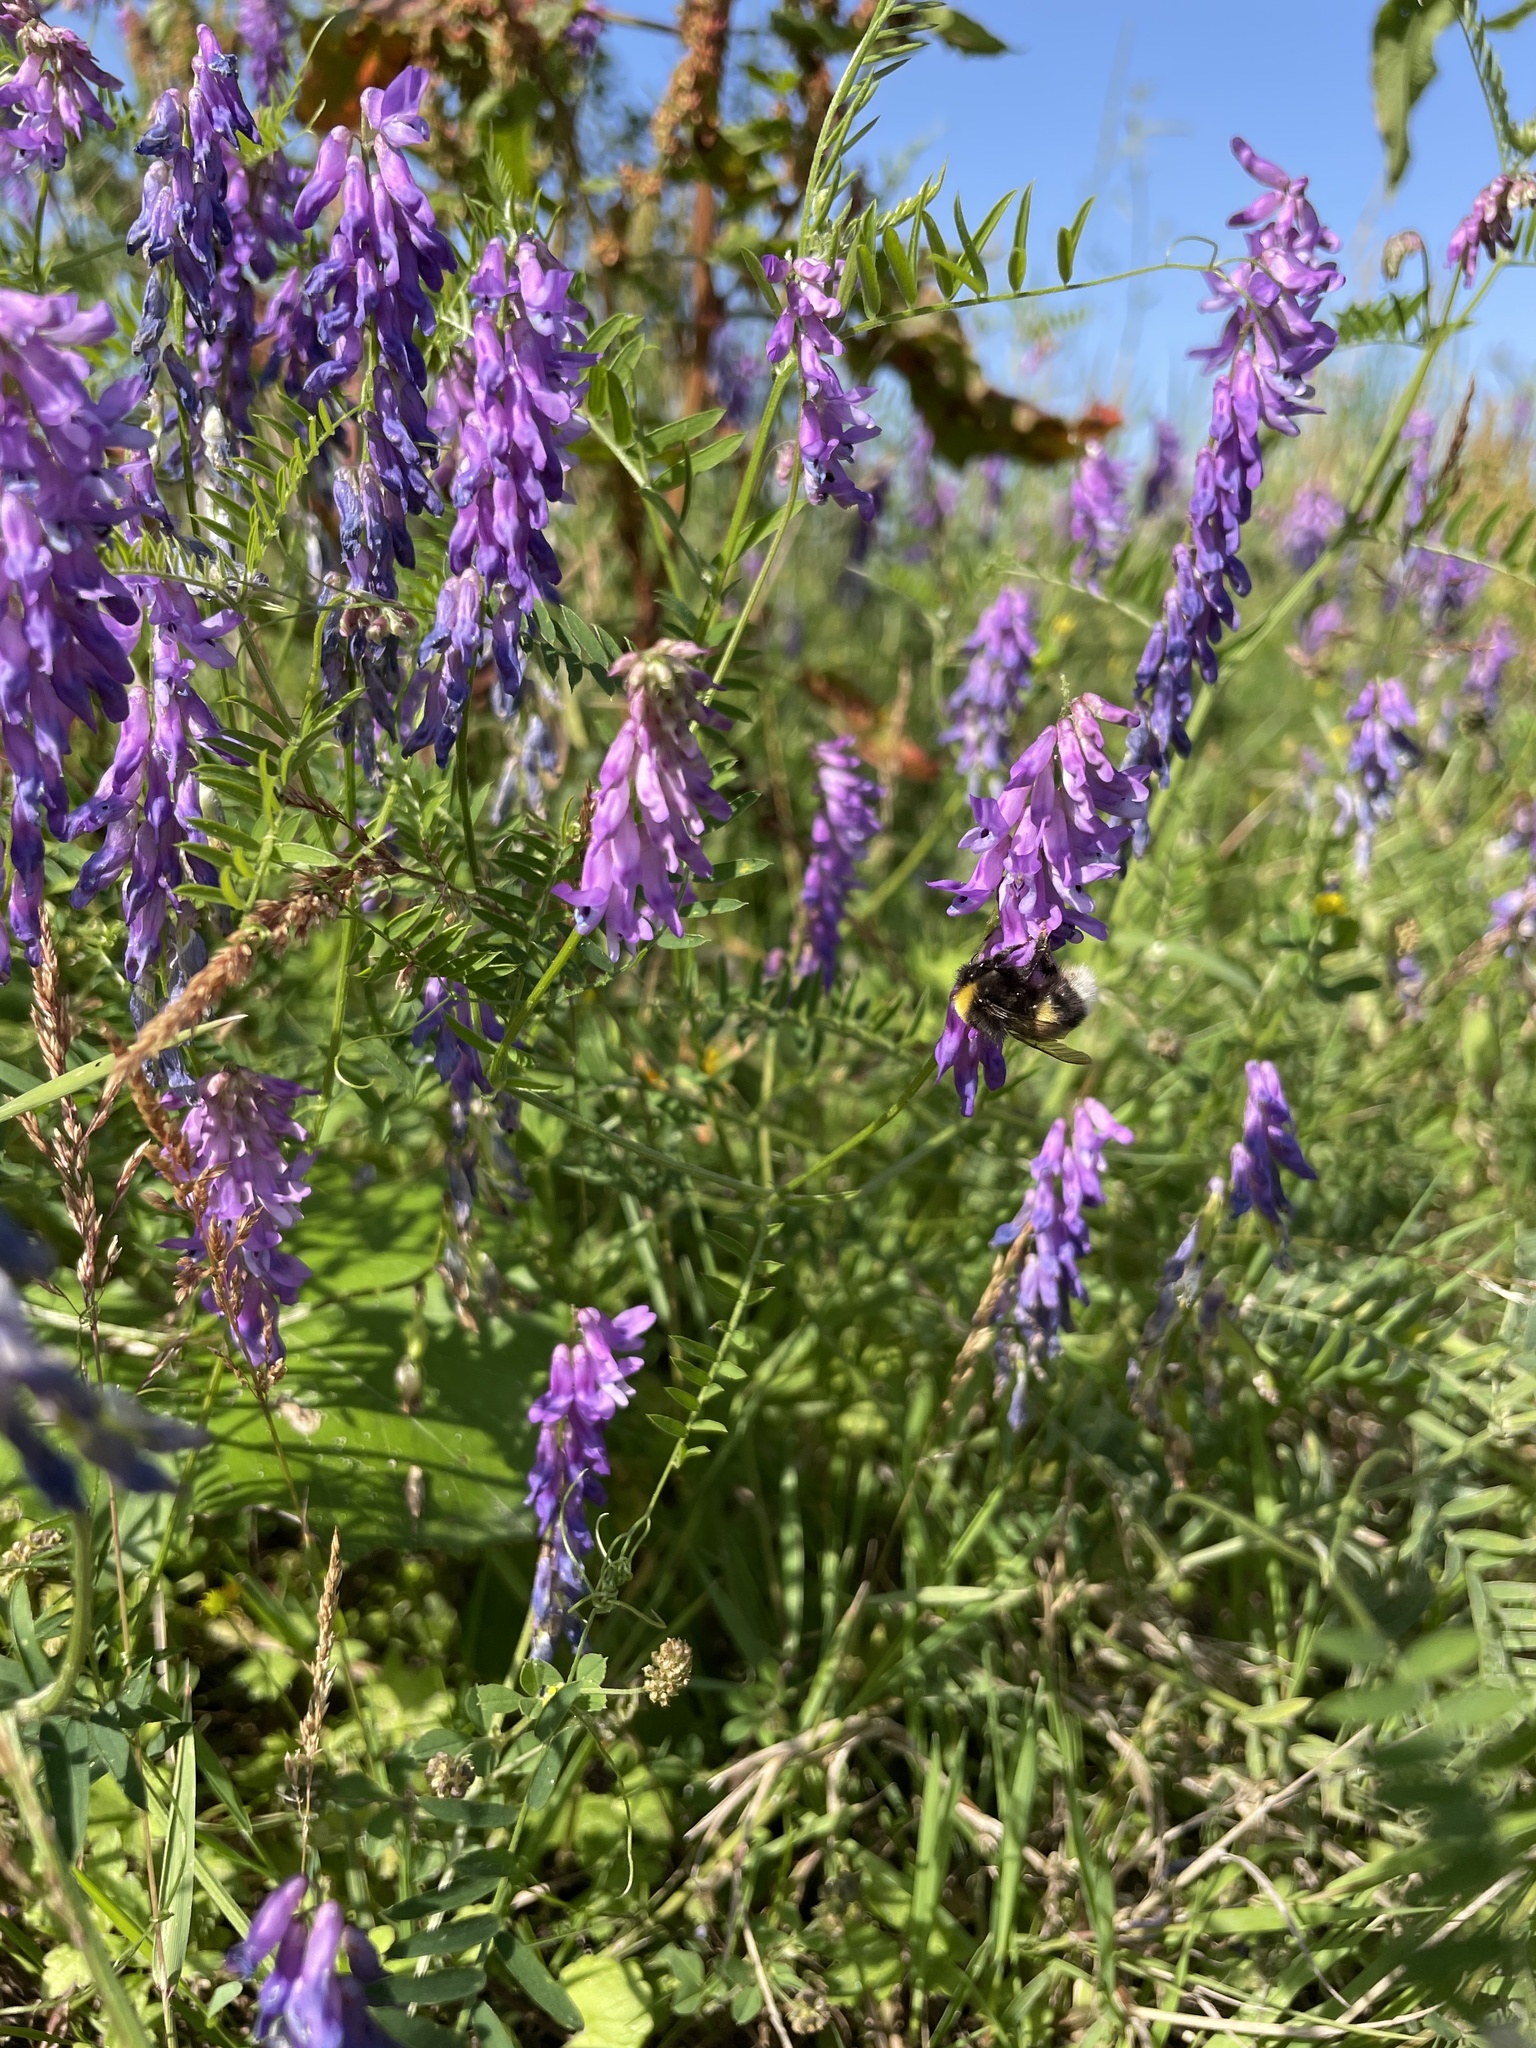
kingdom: Plantae
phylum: Tracheophyta
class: Magnoliopsida
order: Fabales
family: Fabaceae
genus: Vicia
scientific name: Vicia cracca
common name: Bird vetch
